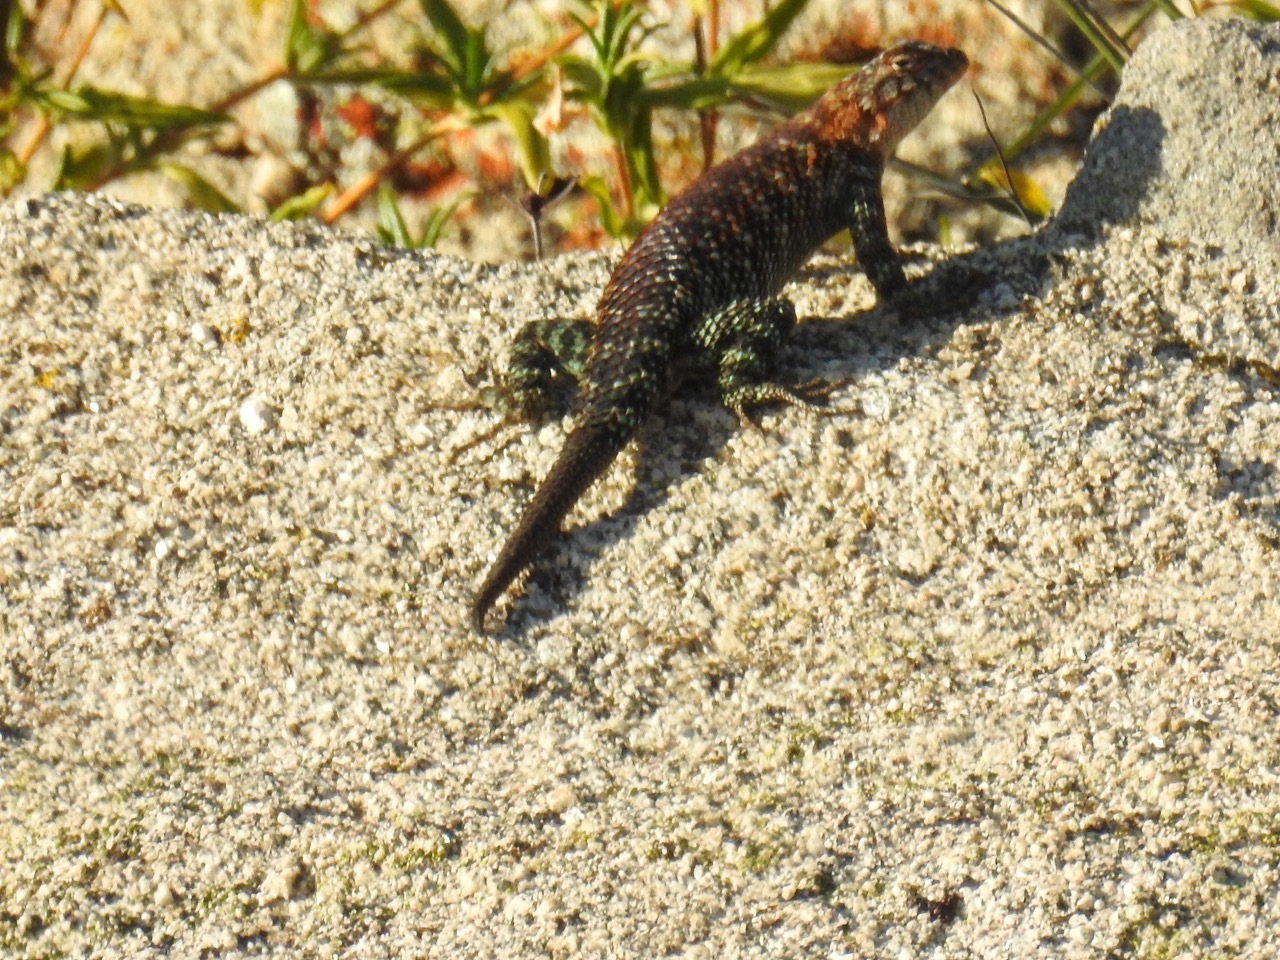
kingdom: Animalia
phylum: Chordata
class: Squamata
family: Phrynosomatidae
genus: Sceloporus
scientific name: Sceloporus orcutti
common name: Granite spiny lizard
